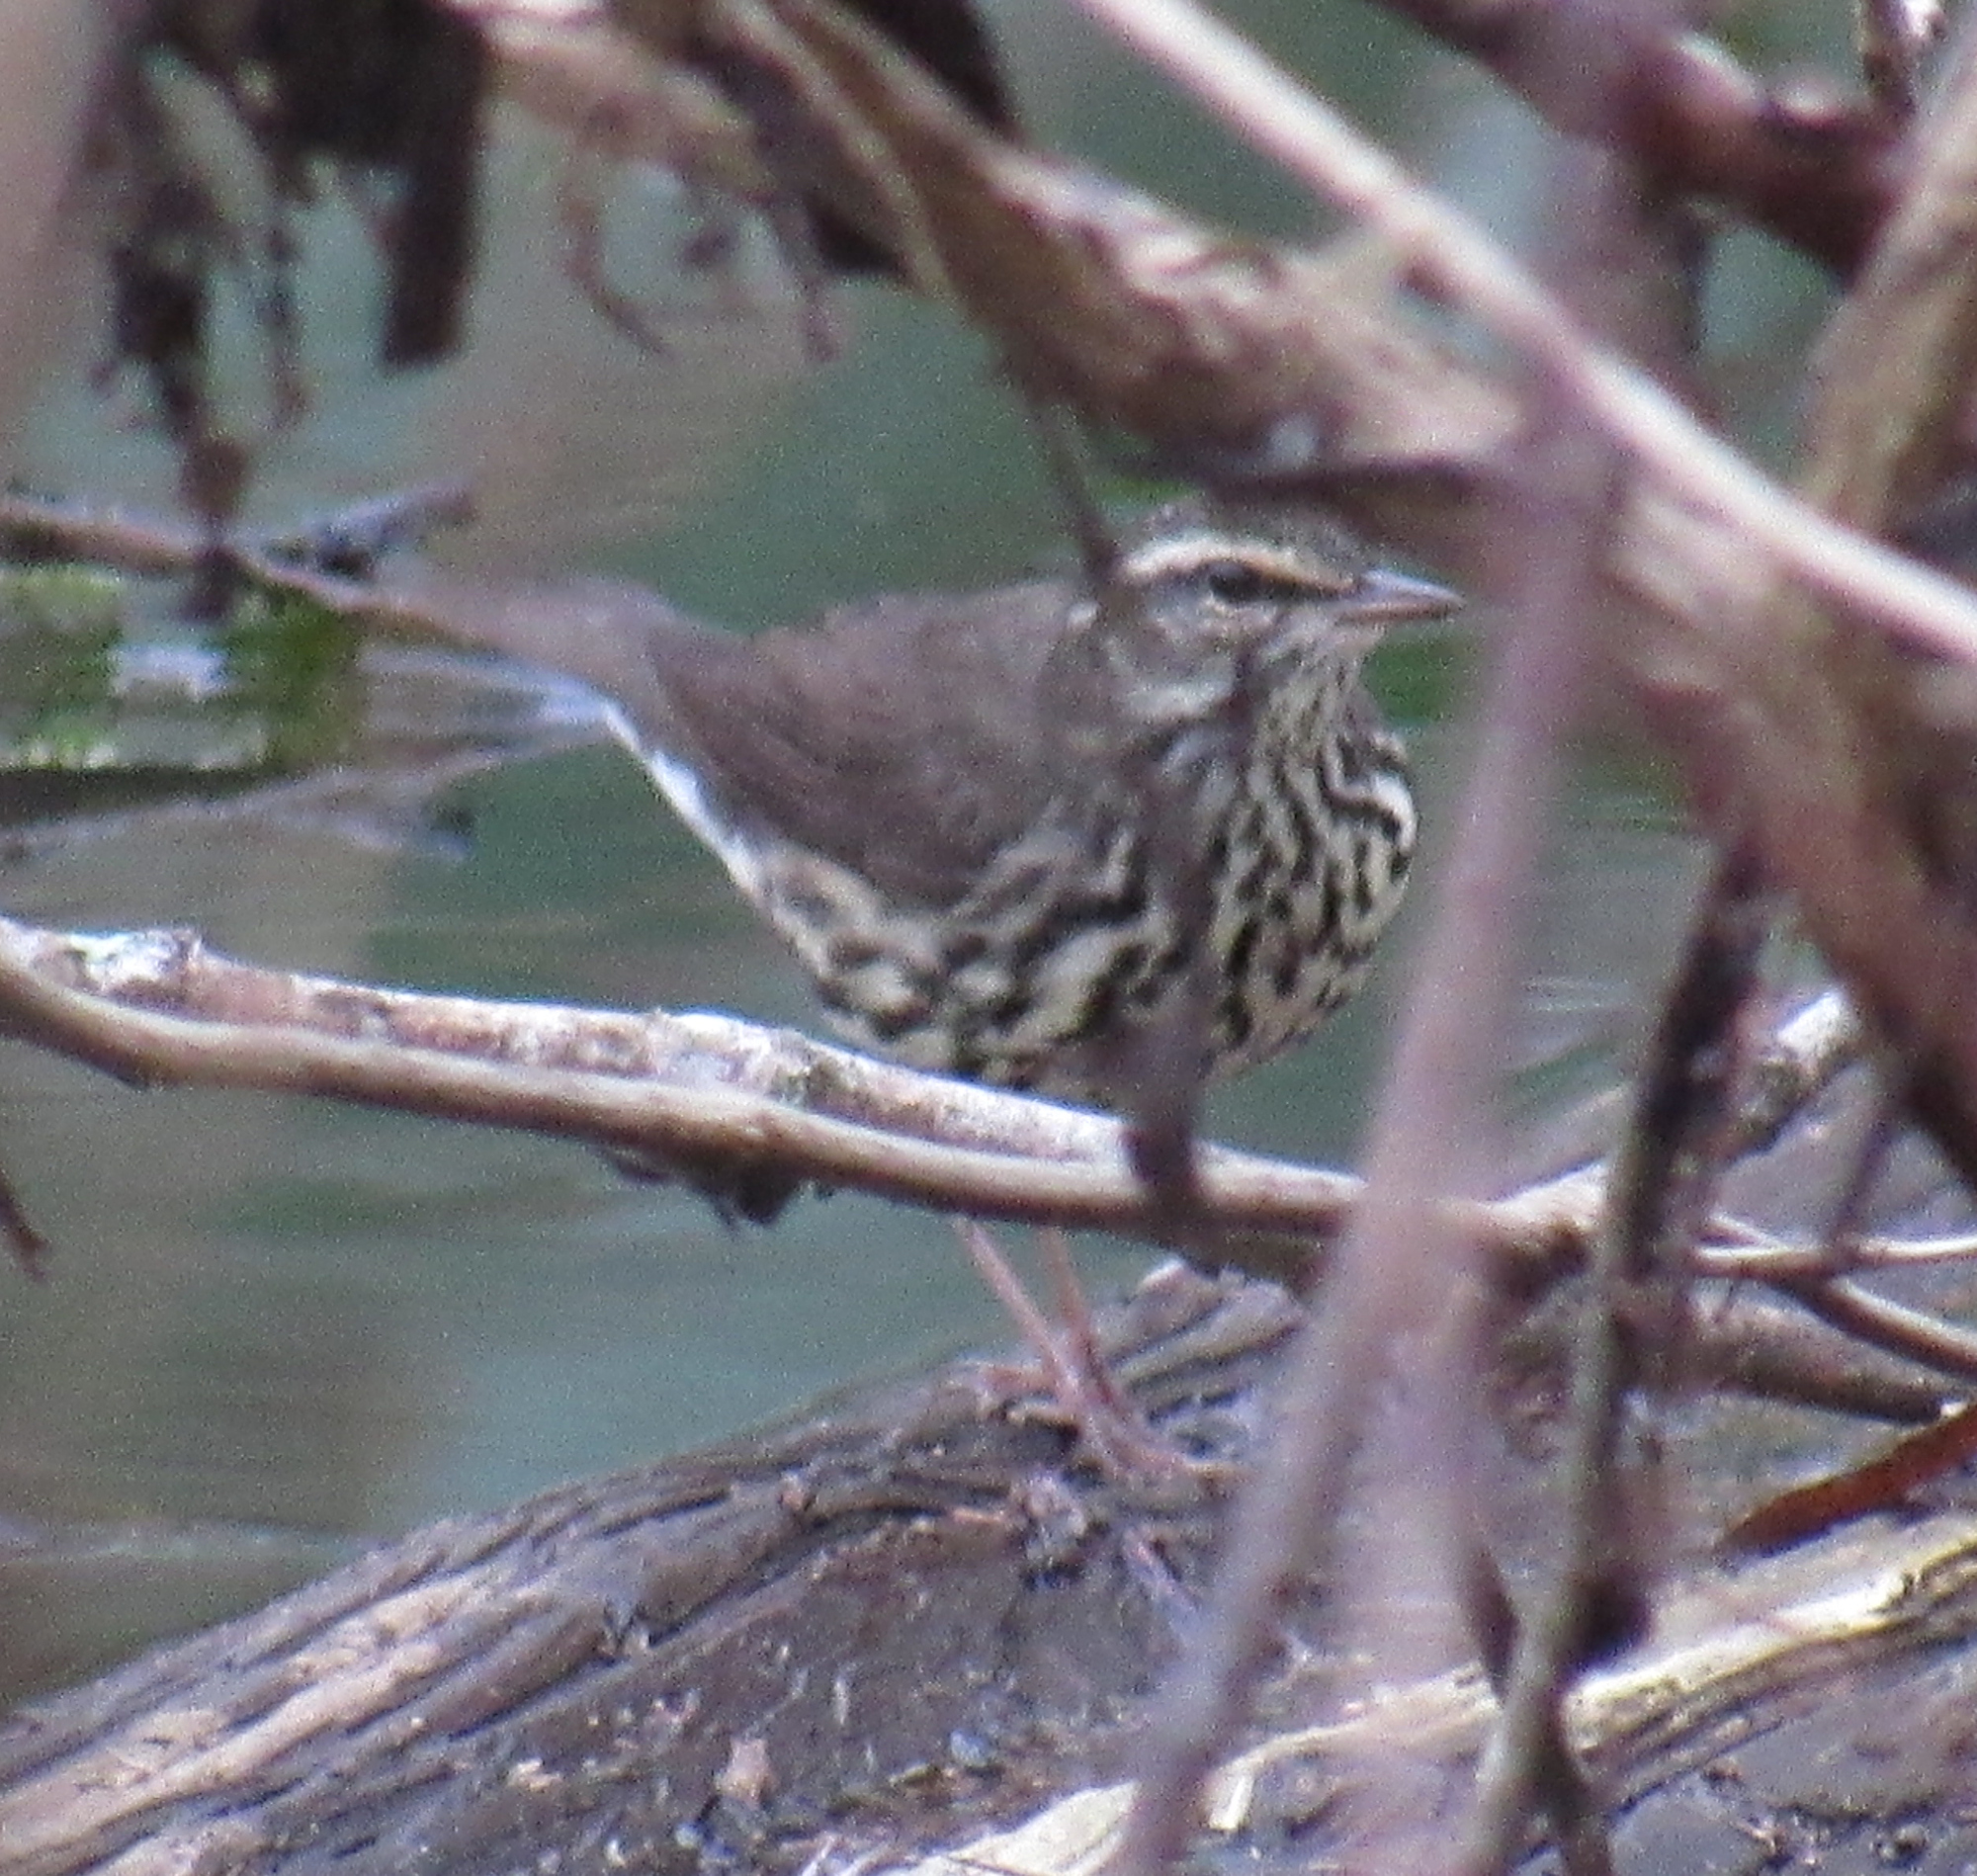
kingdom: Animalia
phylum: Chordata
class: Aves
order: Passeriformes
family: Parulidae
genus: Parkesia
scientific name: Parkesia noveboracensis
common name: Northern waterthrush
